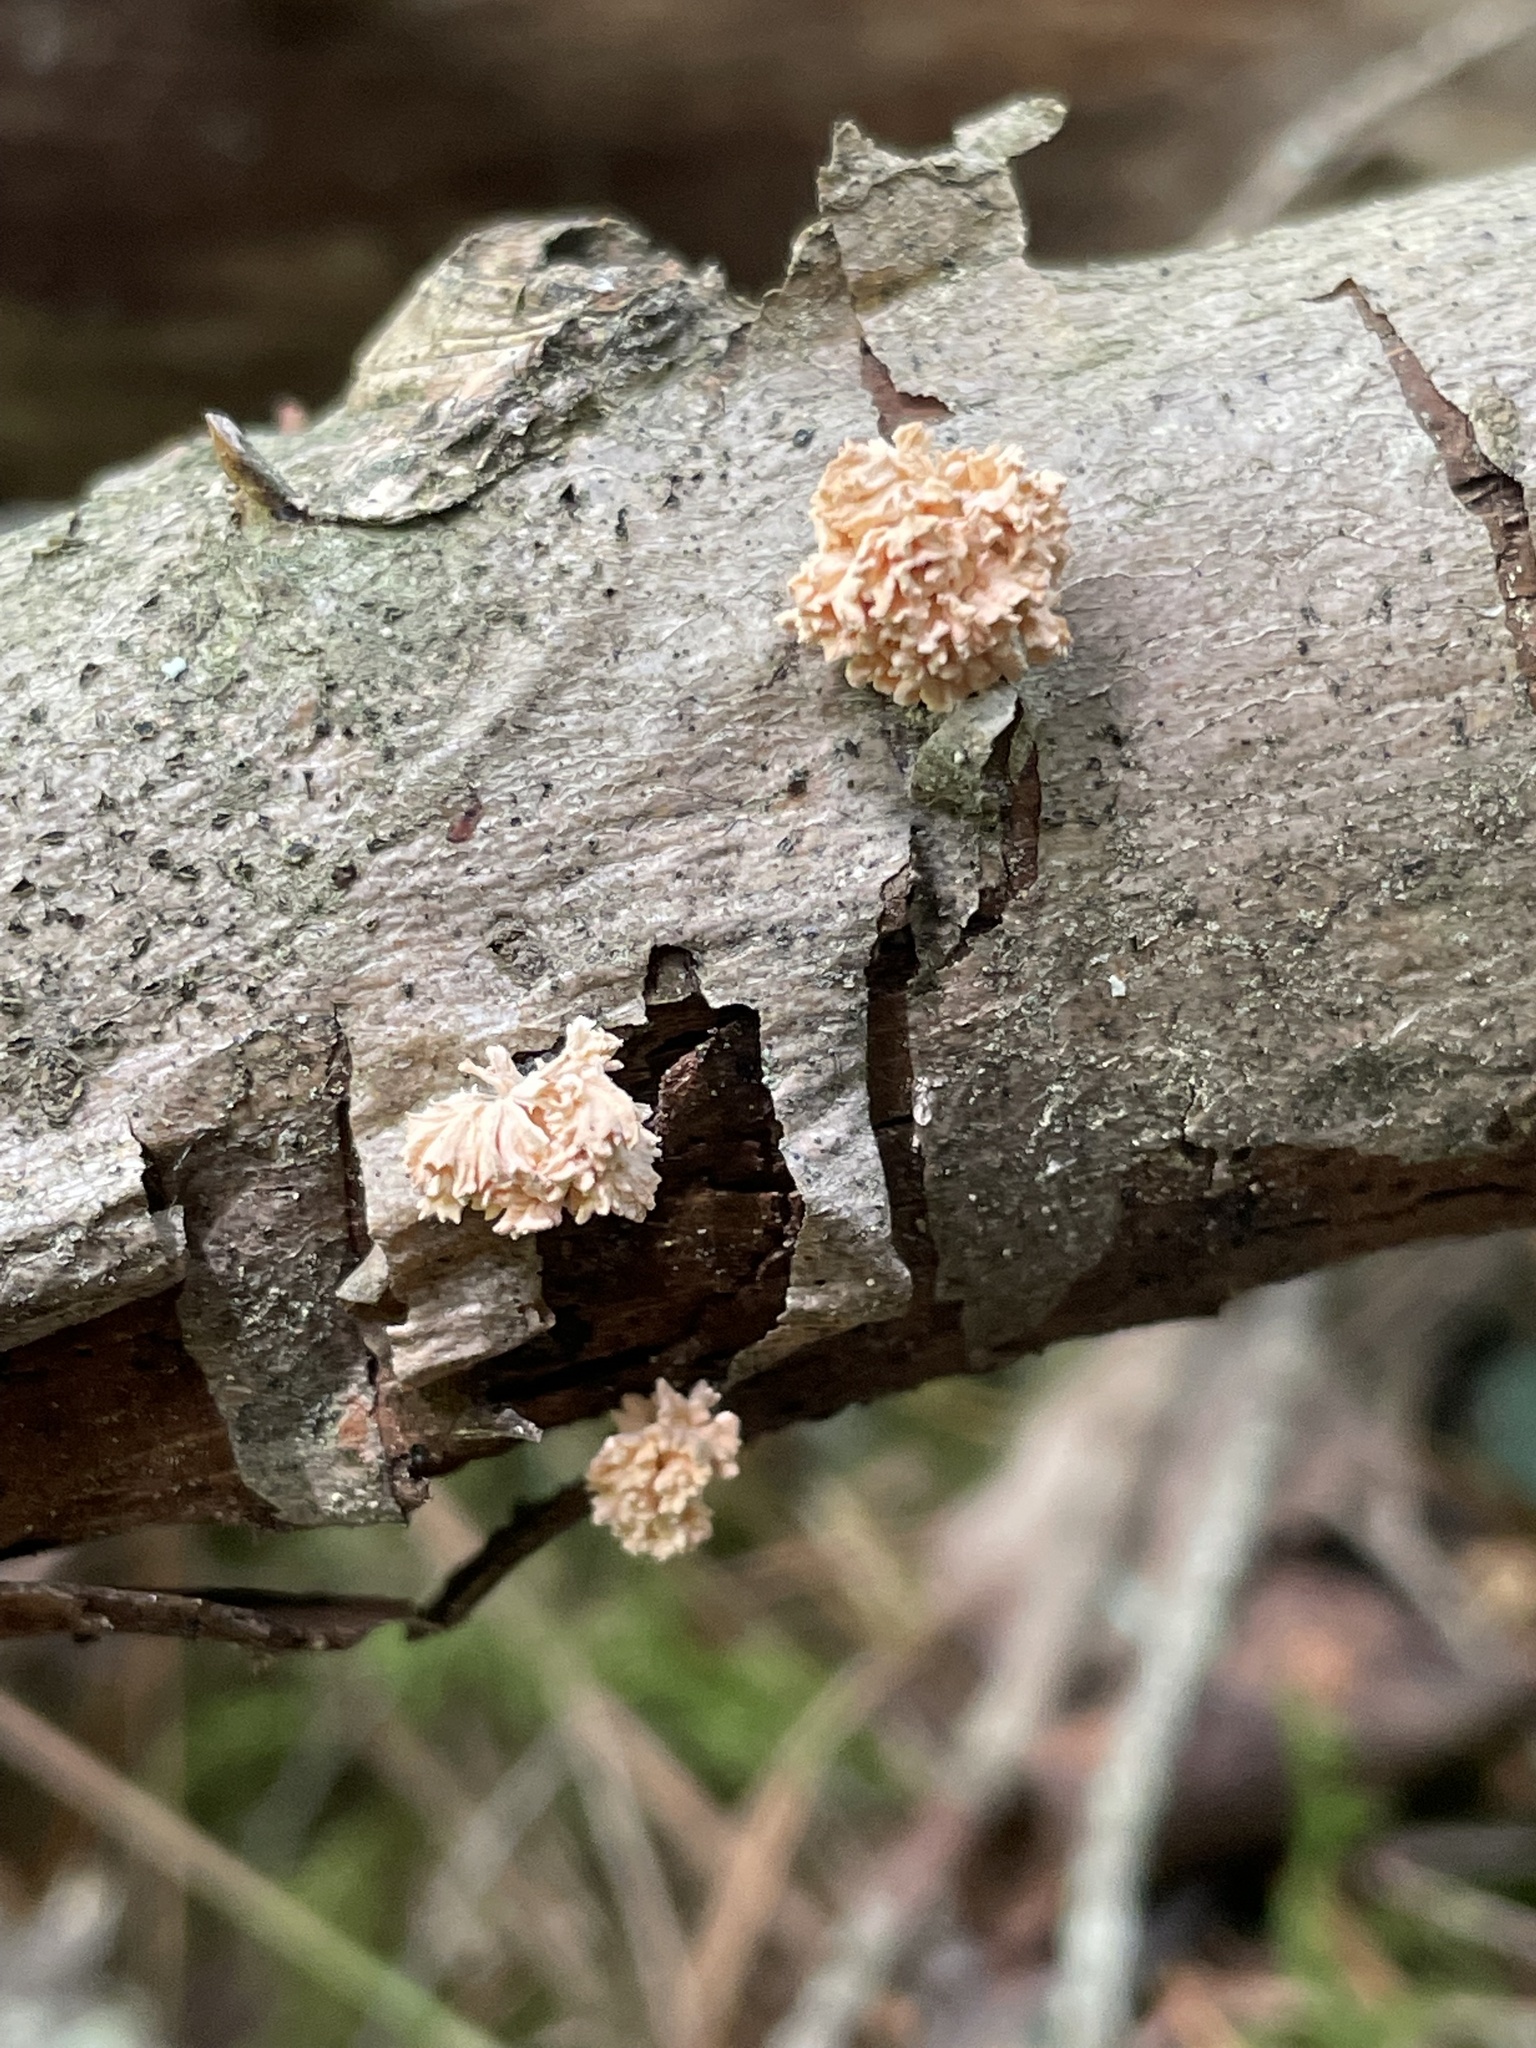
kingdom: Fungi
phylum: Ascomycota
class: Sordariomycetes
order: Xylariales
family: Xylariaceae
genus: Xylaria
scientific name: Xylaria cubensis
